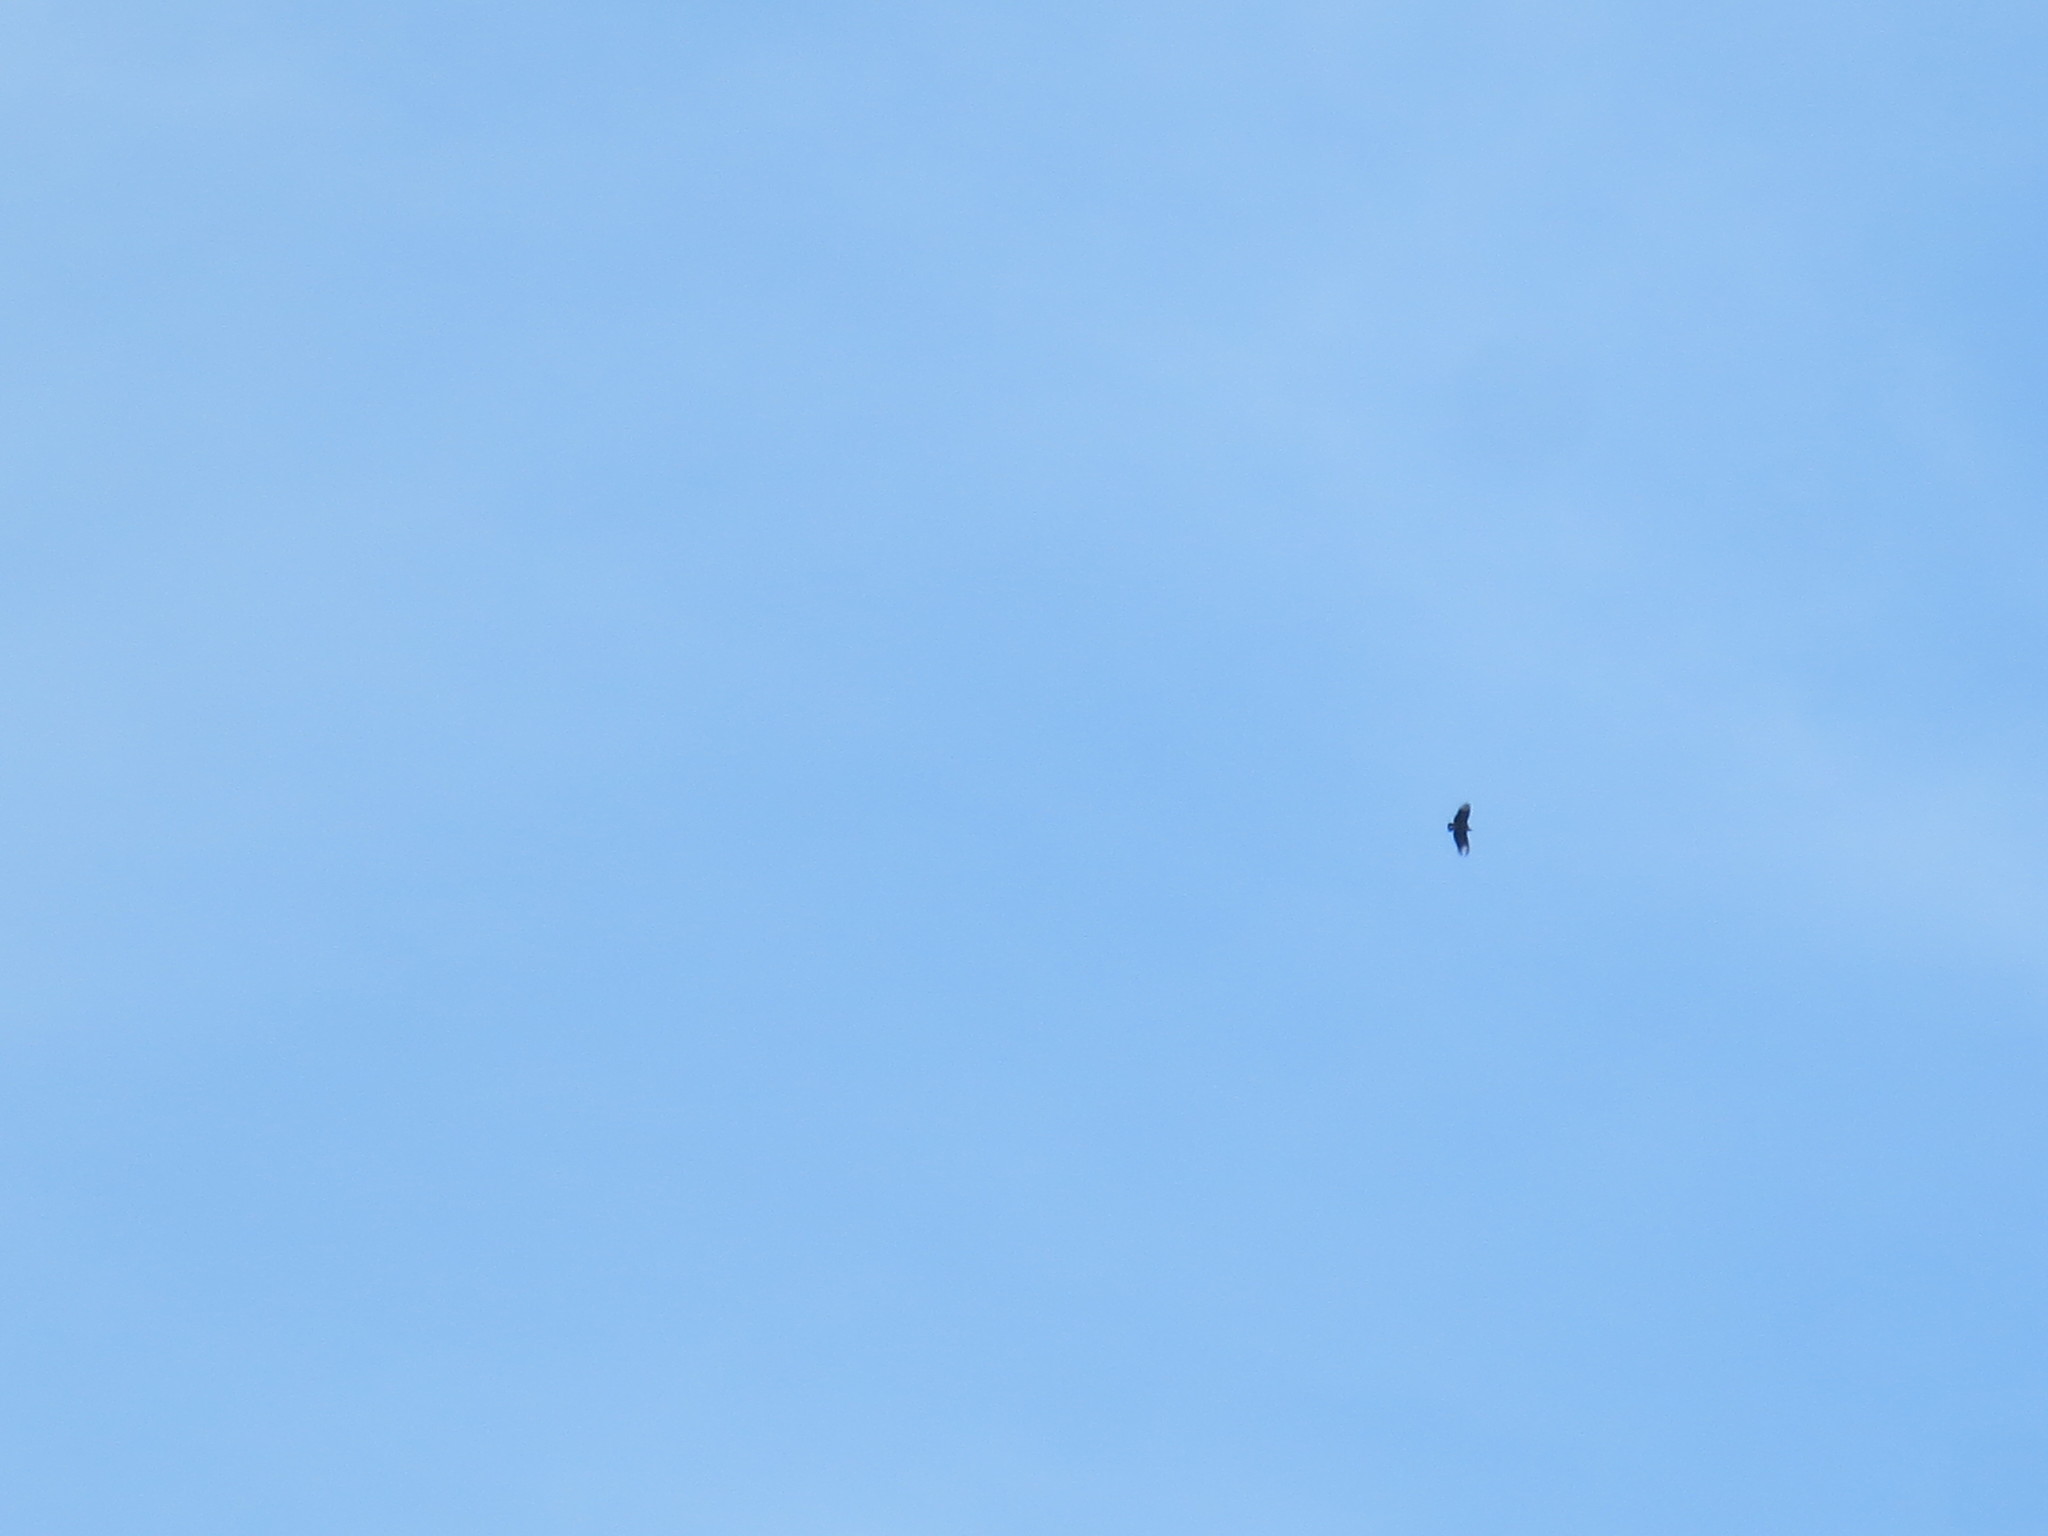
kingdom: Animalia
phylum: Chordata
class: Aves
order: Accipitriformes
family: Cathartidae
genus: Coragyps
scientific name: Coragyps atratus
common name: Black vulture
